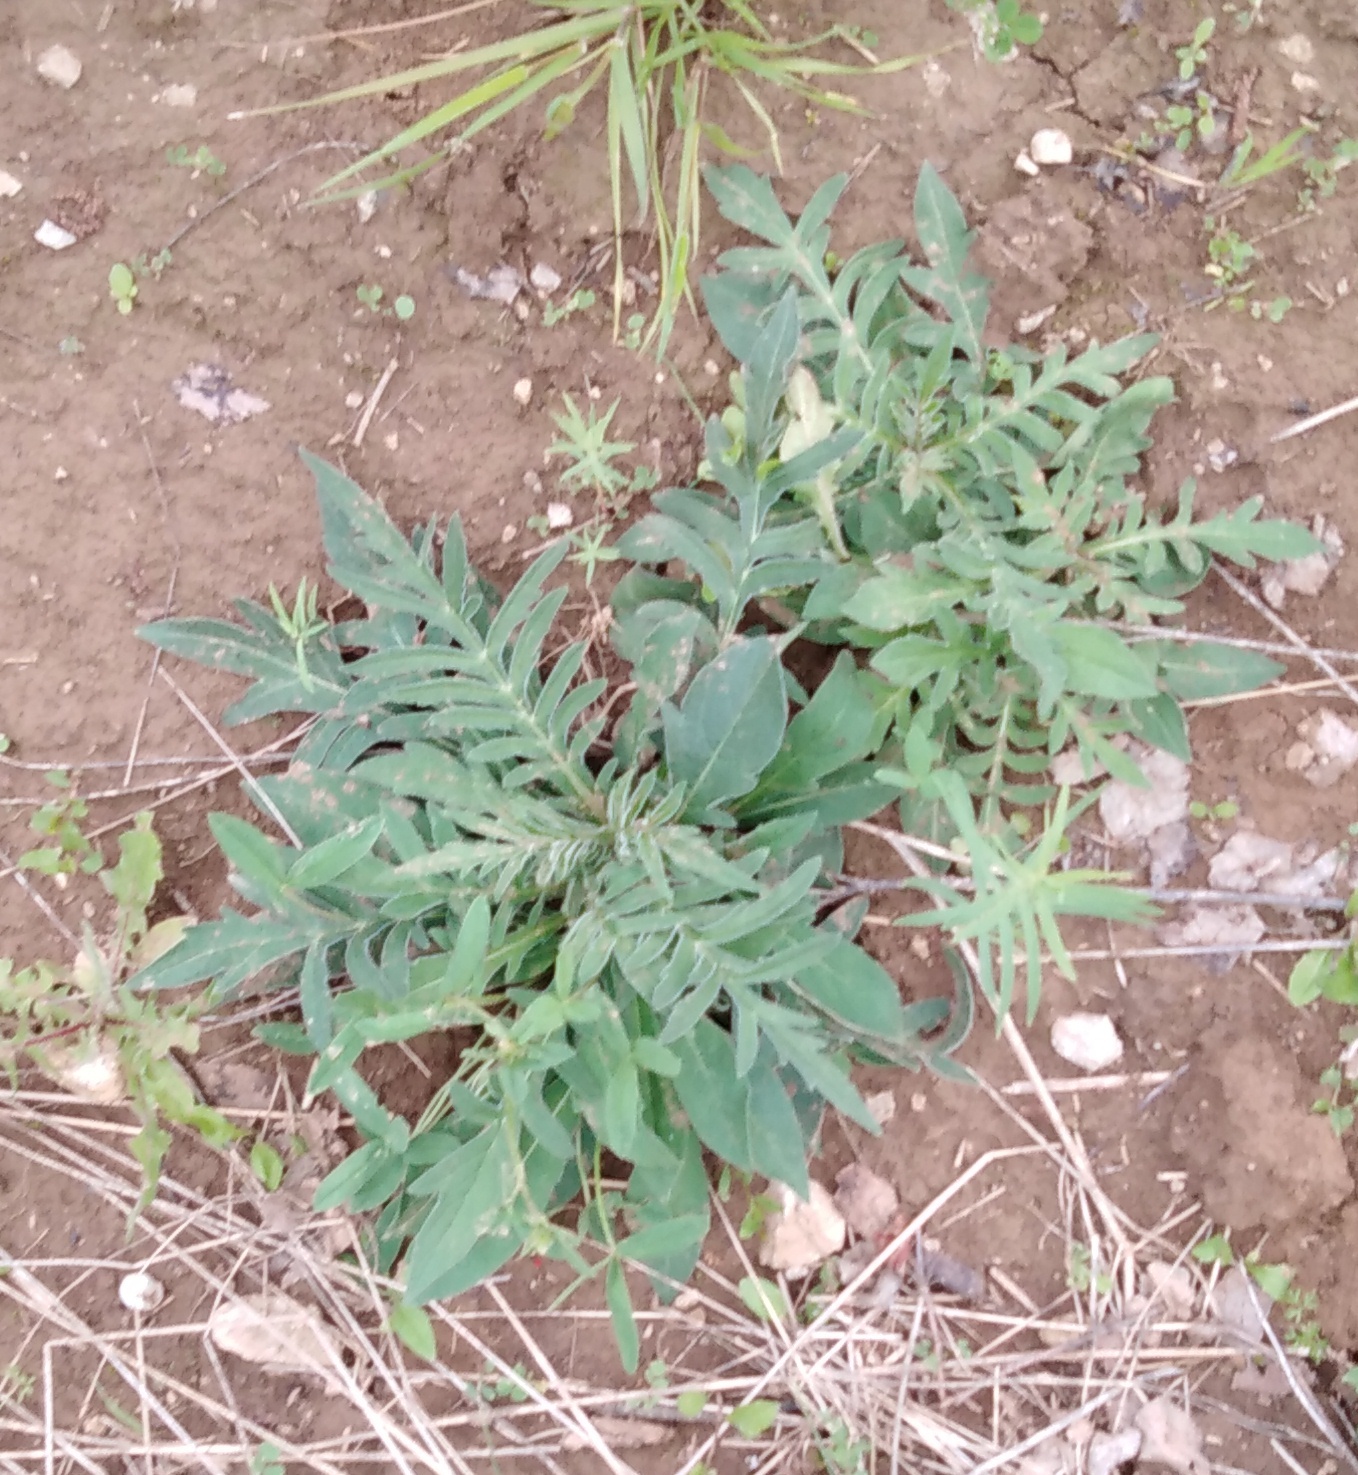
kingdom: Plantae
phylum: Tracheophyta
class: Magnoliopsida
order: Dipsacales
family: Caprifoliaceae
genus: Knautia
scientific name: Knautia arvensis
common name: Field scabiosa
